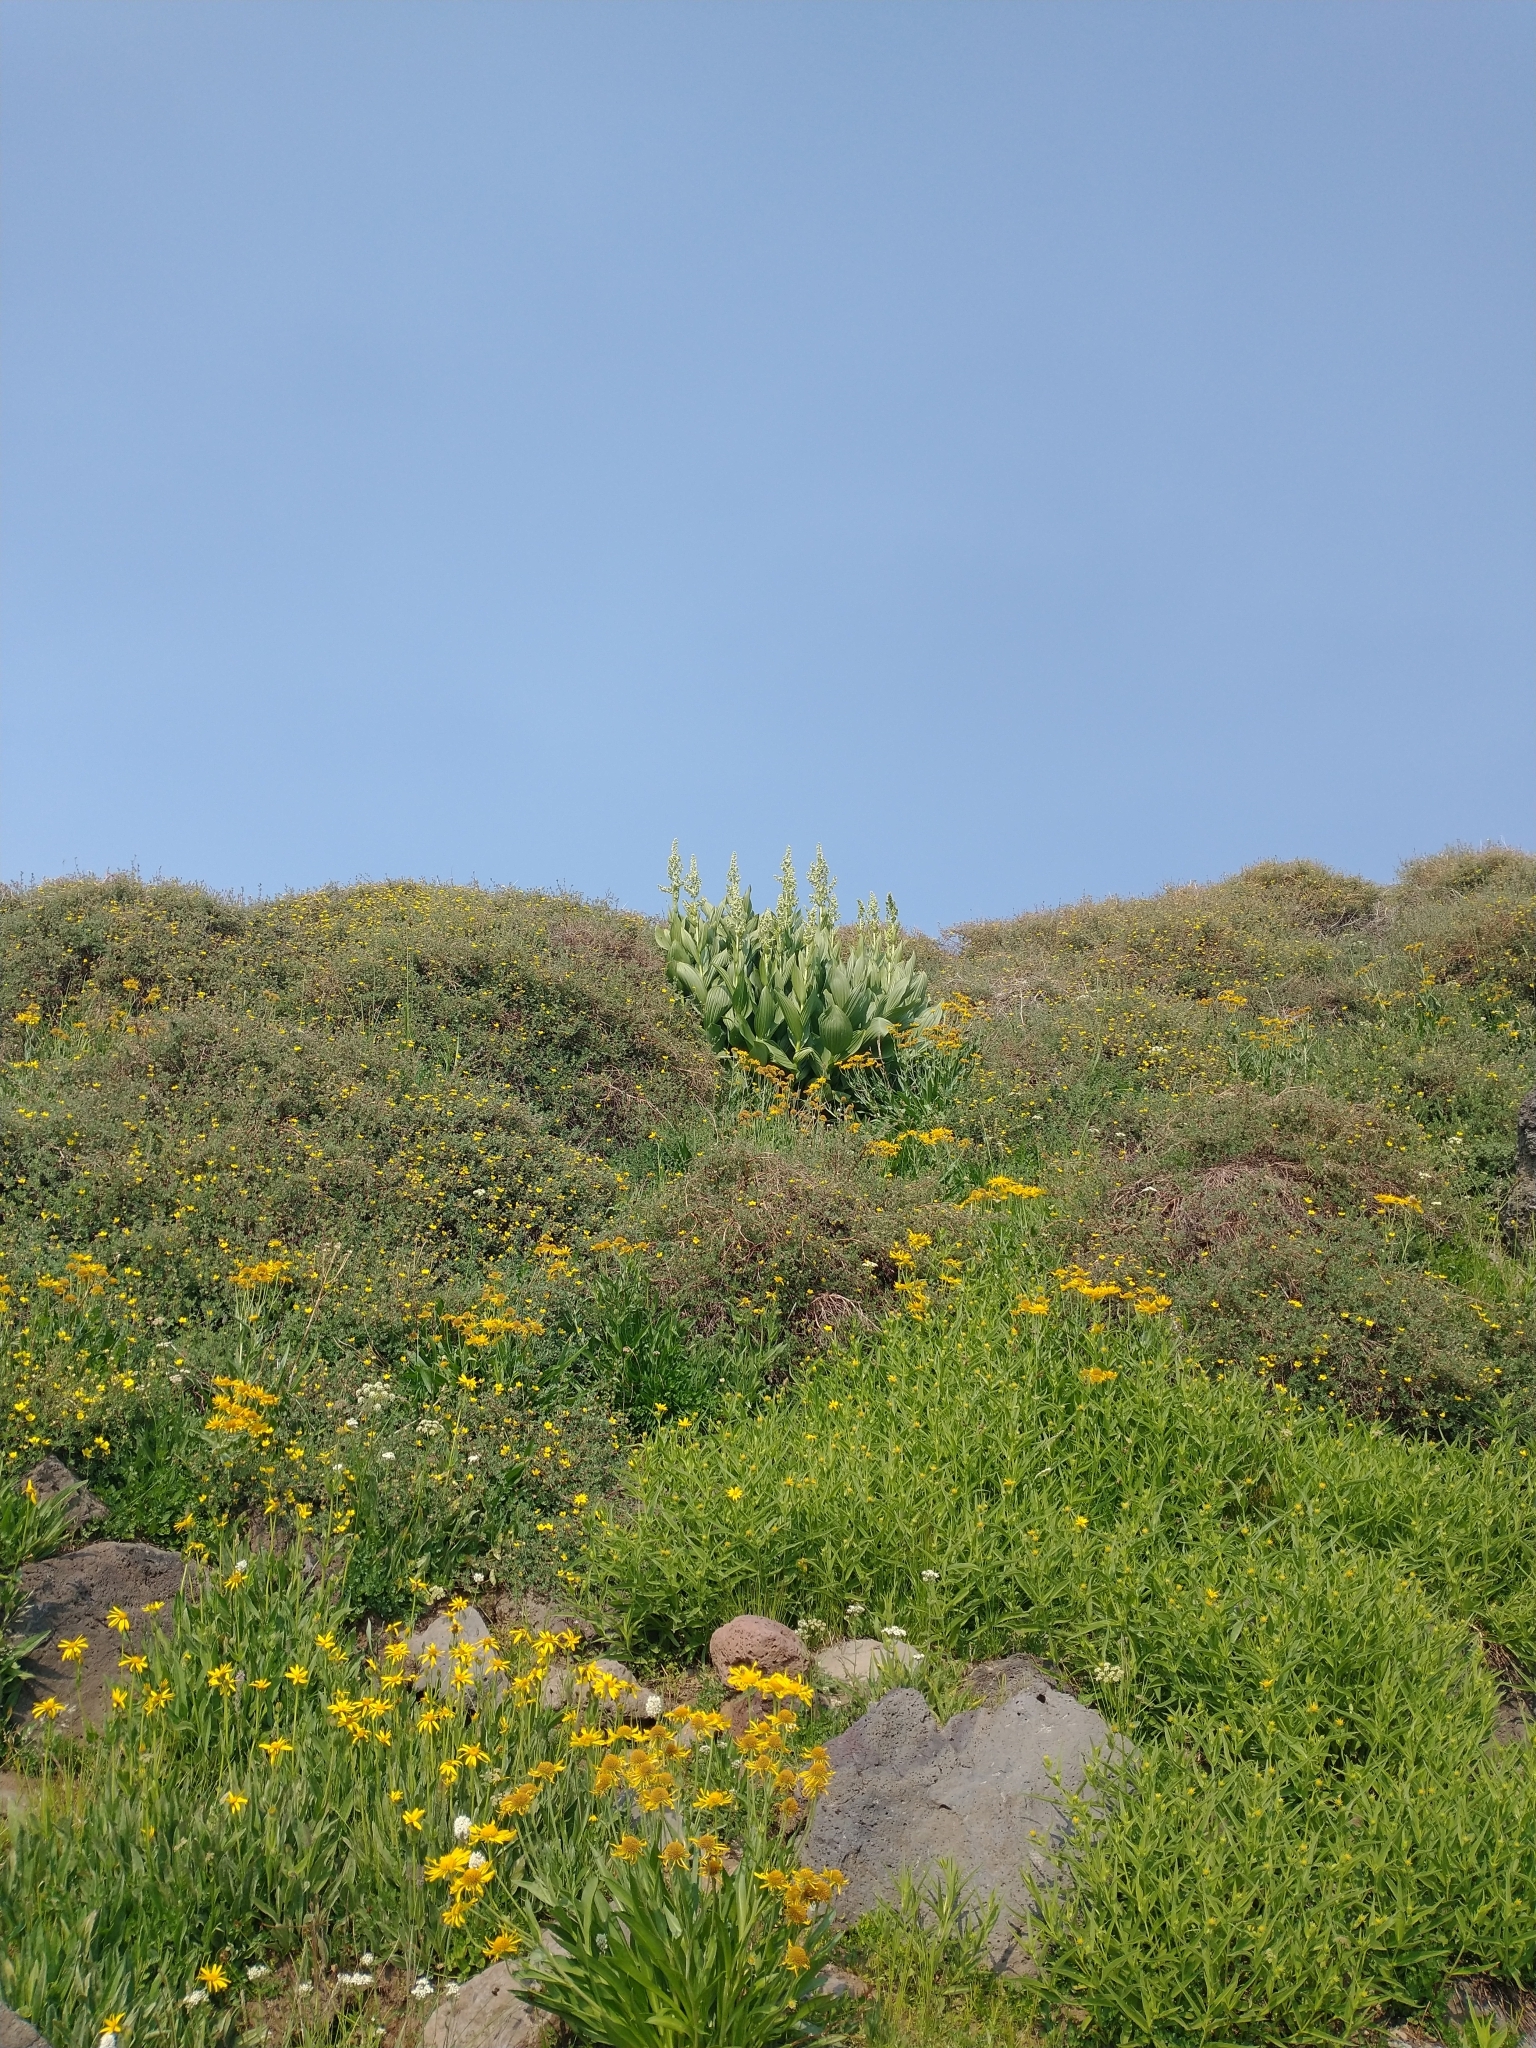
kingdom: Plantae
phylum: Tracheophyta
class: Liliopsida
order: Liliales
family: Melanthiaceae
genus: Veratrum
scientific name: Veratrum californicum
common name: California veratrum
